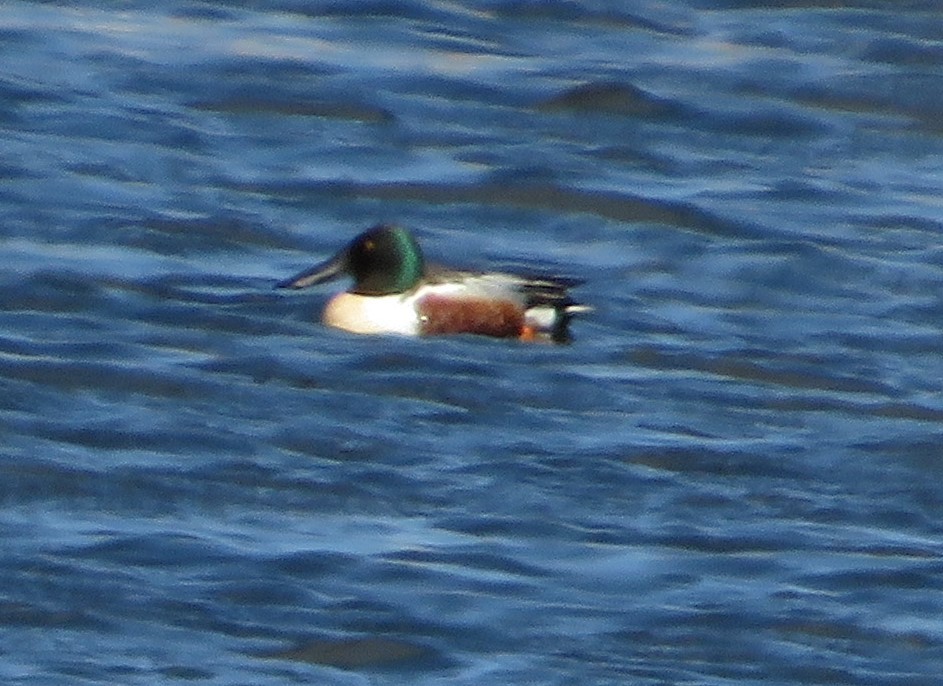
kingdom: Animalia
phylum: Chordata
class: Aves
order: Anseriformes
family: Anatidae
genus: Spatula
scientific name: Spatula clypeata
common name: Northern shoveler
